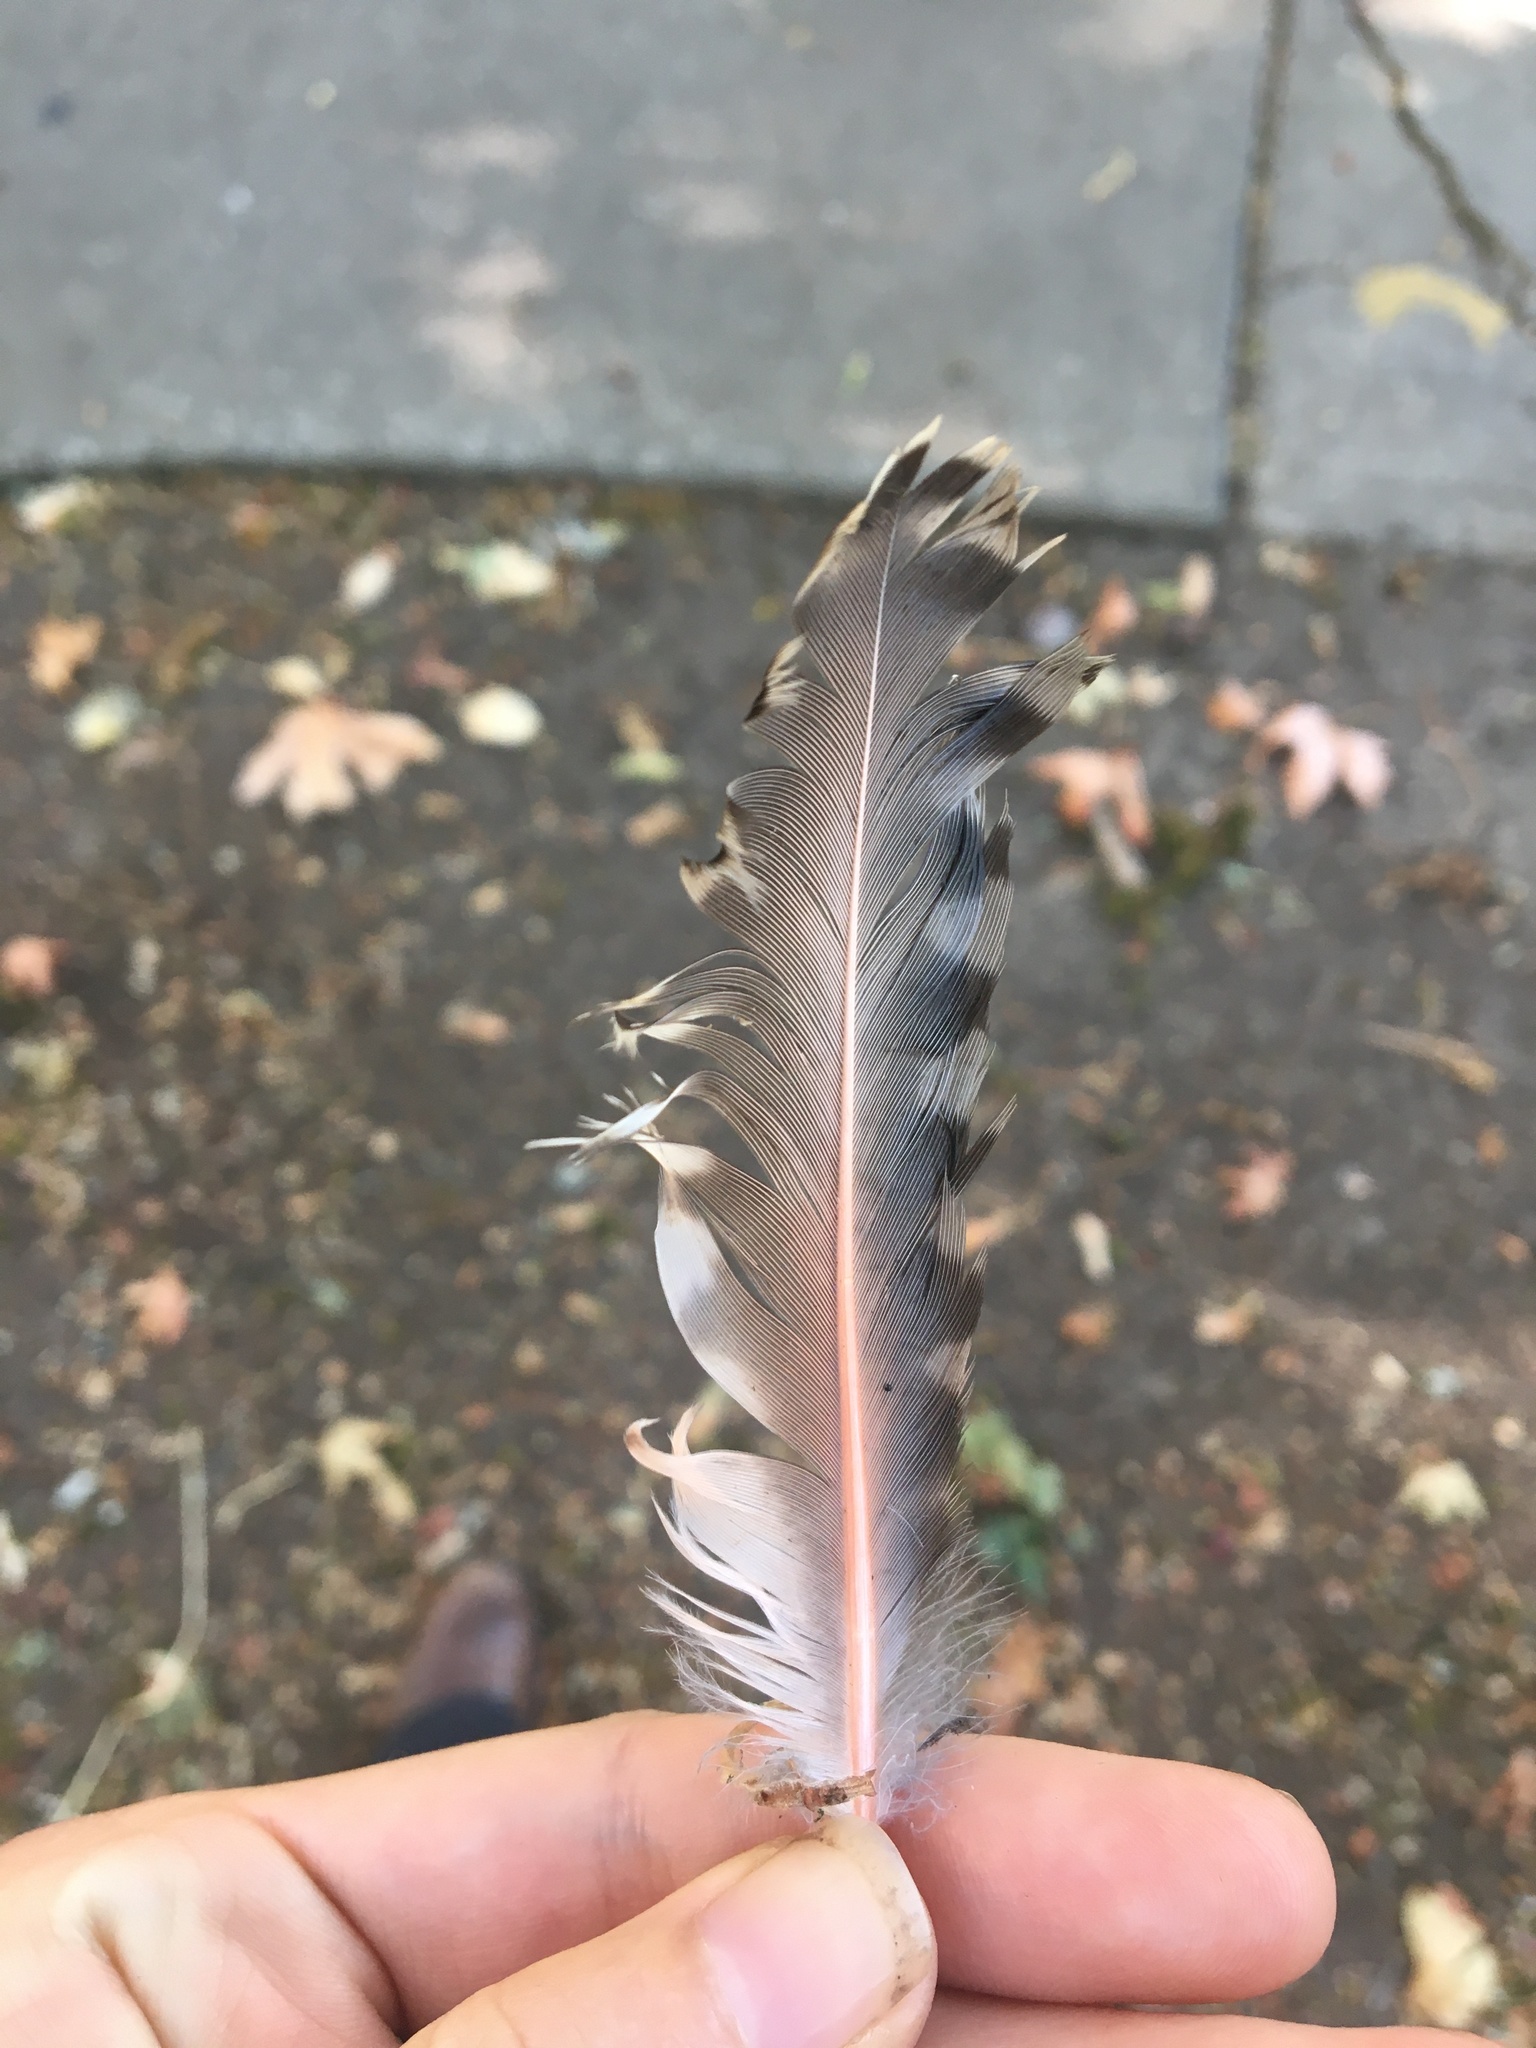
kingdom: Animalia
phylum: Chordata
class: Aves
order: Piciformes
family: Picidae
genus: Colaptes
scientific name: Colaptes auratus
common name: Northern flicker
